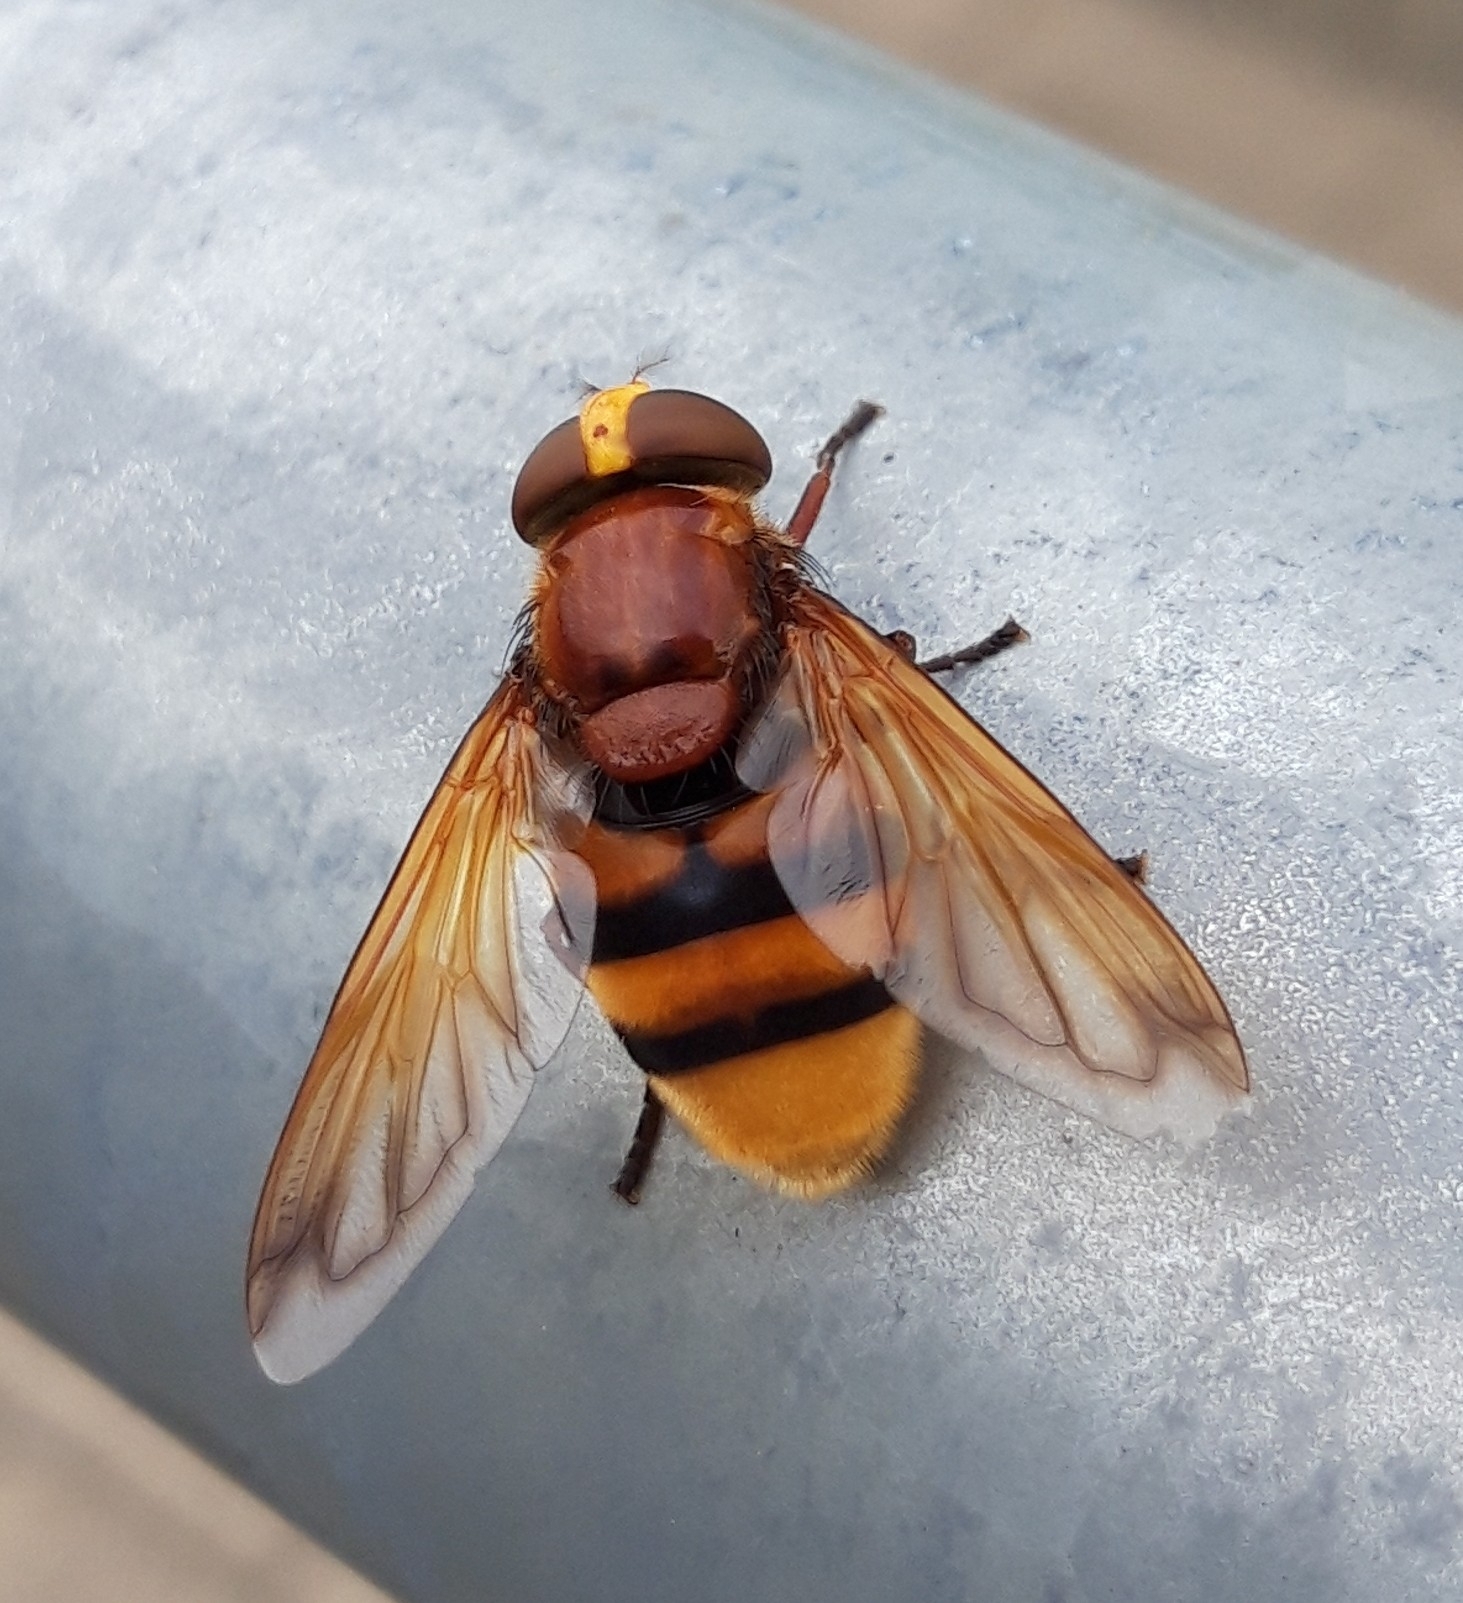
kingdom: Animalia
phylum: Arthropoda
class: Insecta
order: Diptera
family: Syrphidae
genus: Volucella
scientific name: Volucella zonaria
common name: Hornet hoverfly
